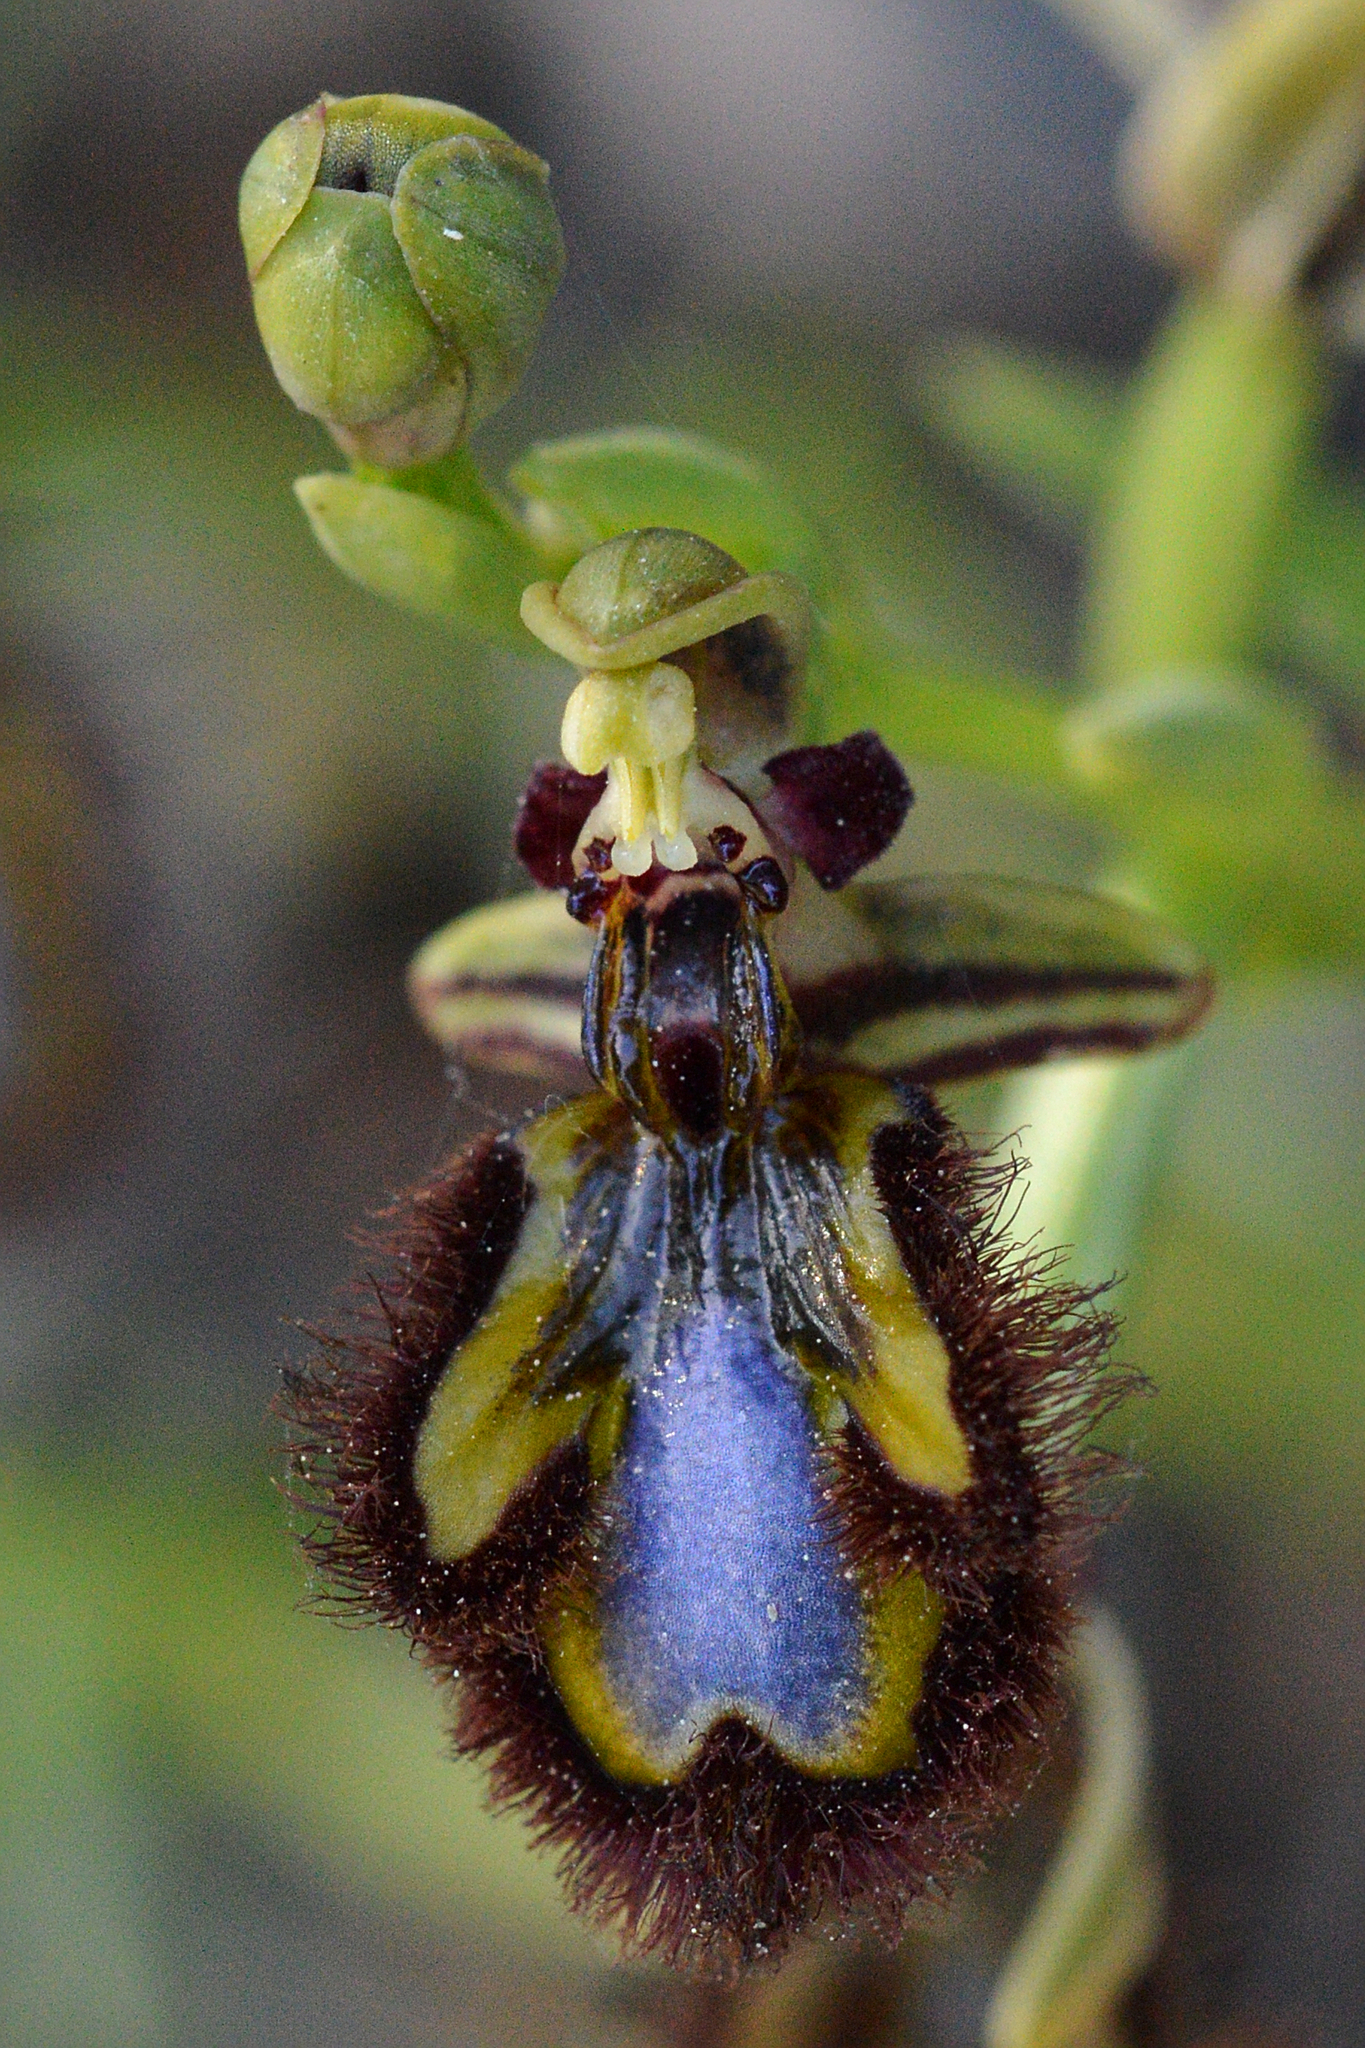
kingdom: Plantae
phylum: Tracheophyta
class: Liliopsida
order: Asparagales
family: Orchidaceae
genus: Ophrys
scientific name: Ophrys speculum
